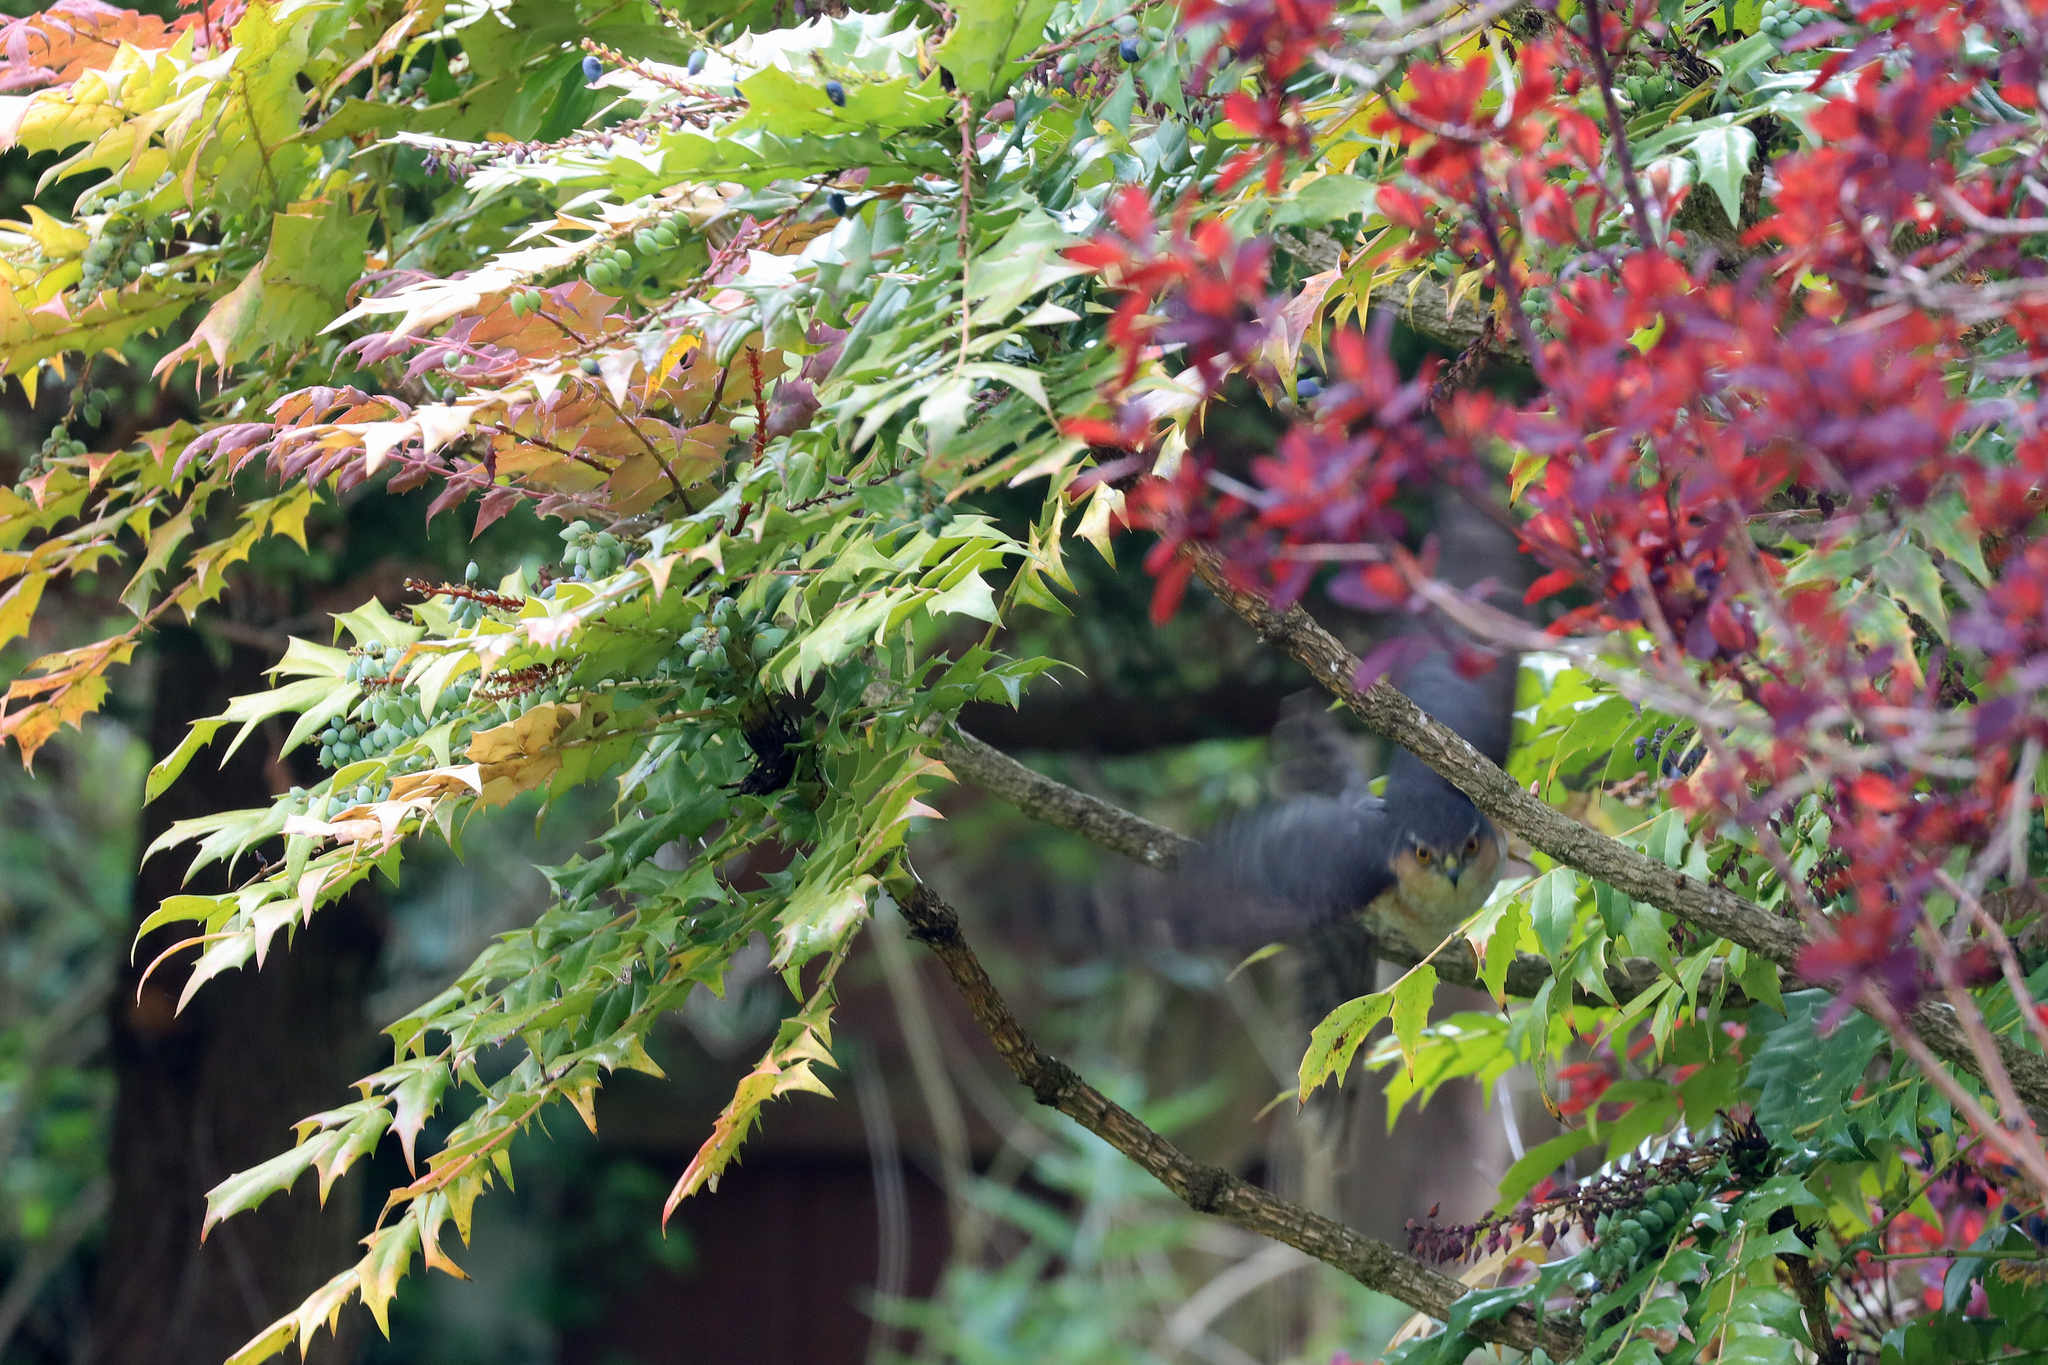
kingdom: Animalia
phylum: Chordata
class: Aves
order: Accipitriformes
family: Accipitridae
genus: Accipiter
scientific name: Accipiter nisus
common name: Eurasian sparrowhawk
